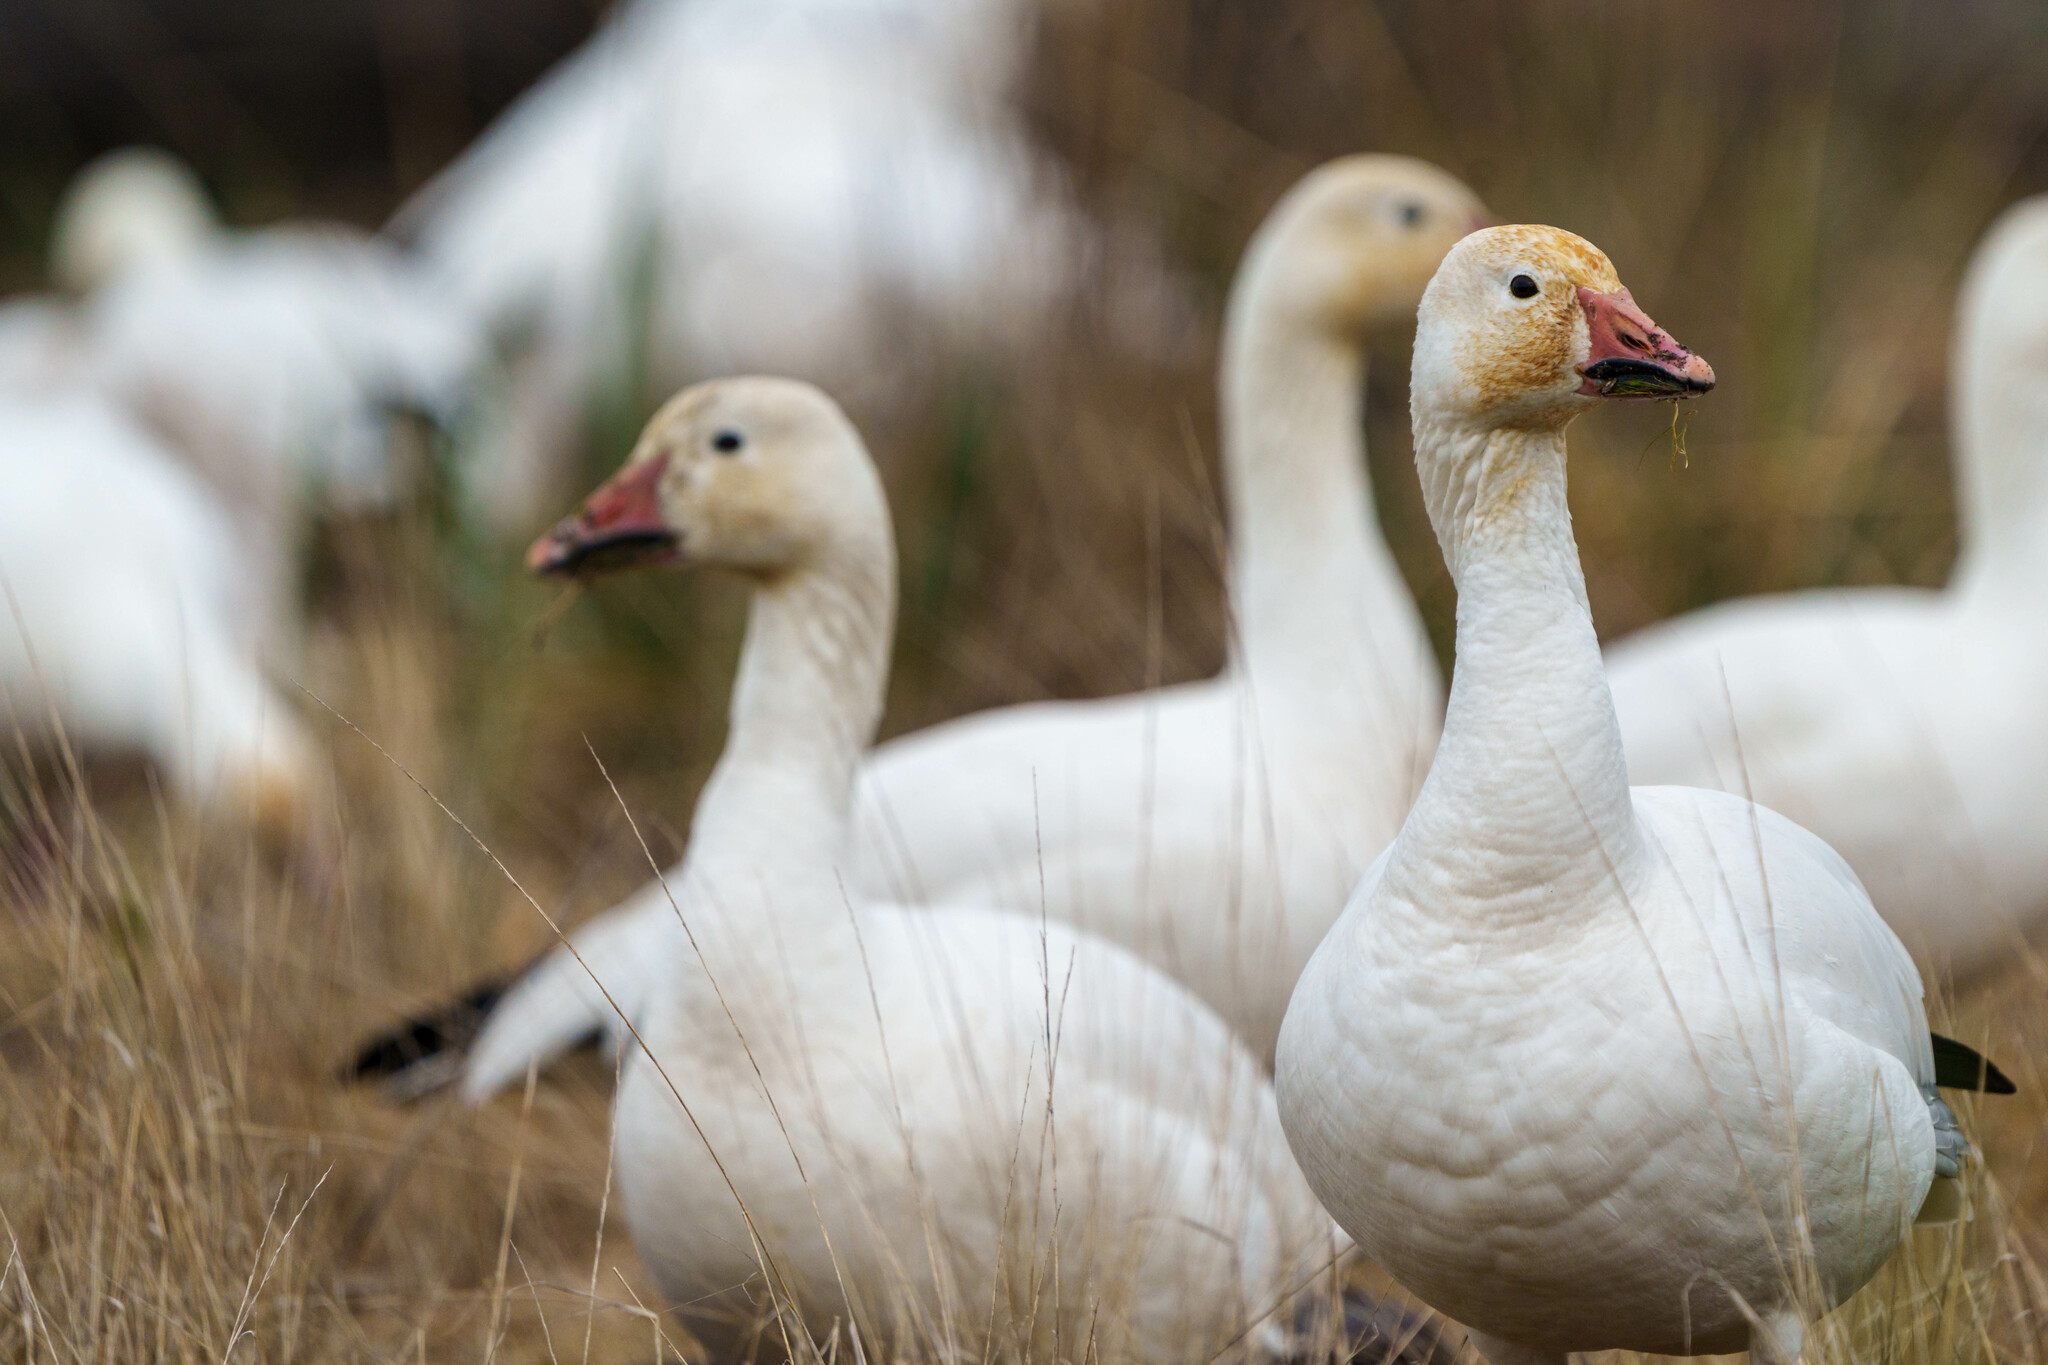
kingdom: Animalia
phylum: Chordata
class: Aves
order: Anseriformes
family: Anatidae
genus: Anser
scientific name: Anser caerulescens
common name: Snow goose
